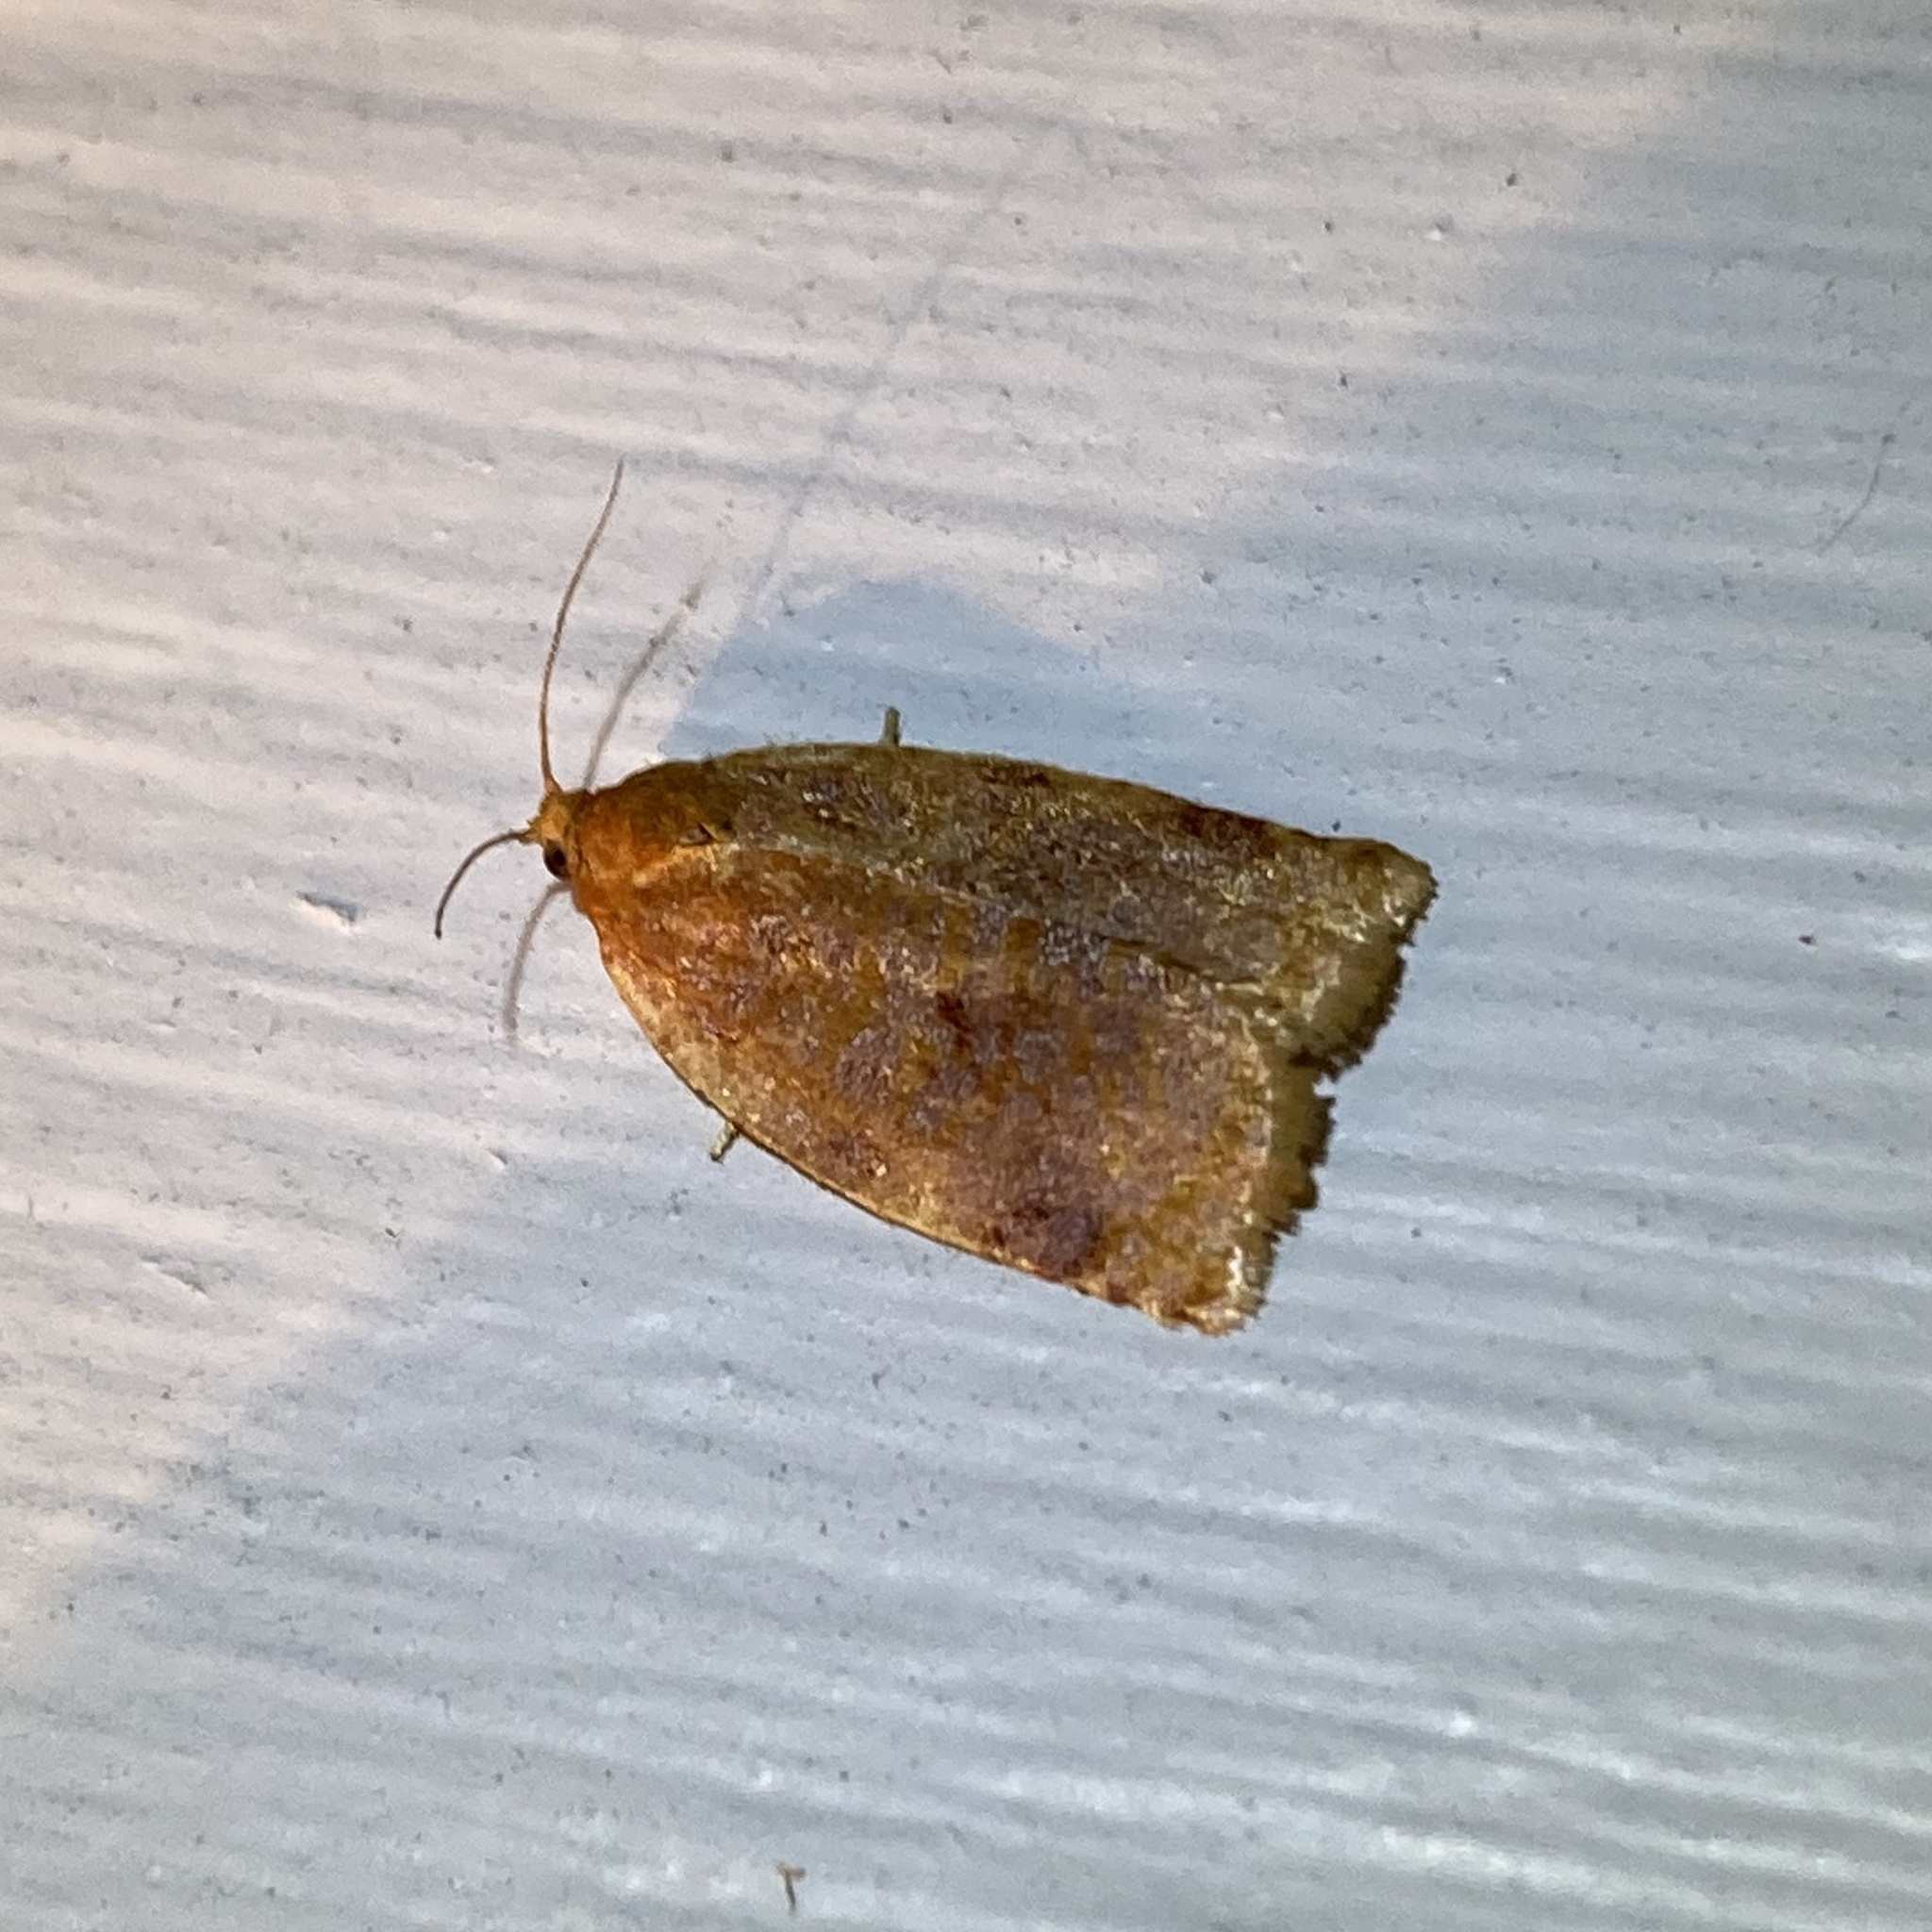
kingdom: Animalia
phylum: Arthropoda
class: Insecta
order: Lepidoptera
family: Tortricidae
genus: Archips
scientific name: Archips cerasivorana
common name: Uglynest caterpillar
